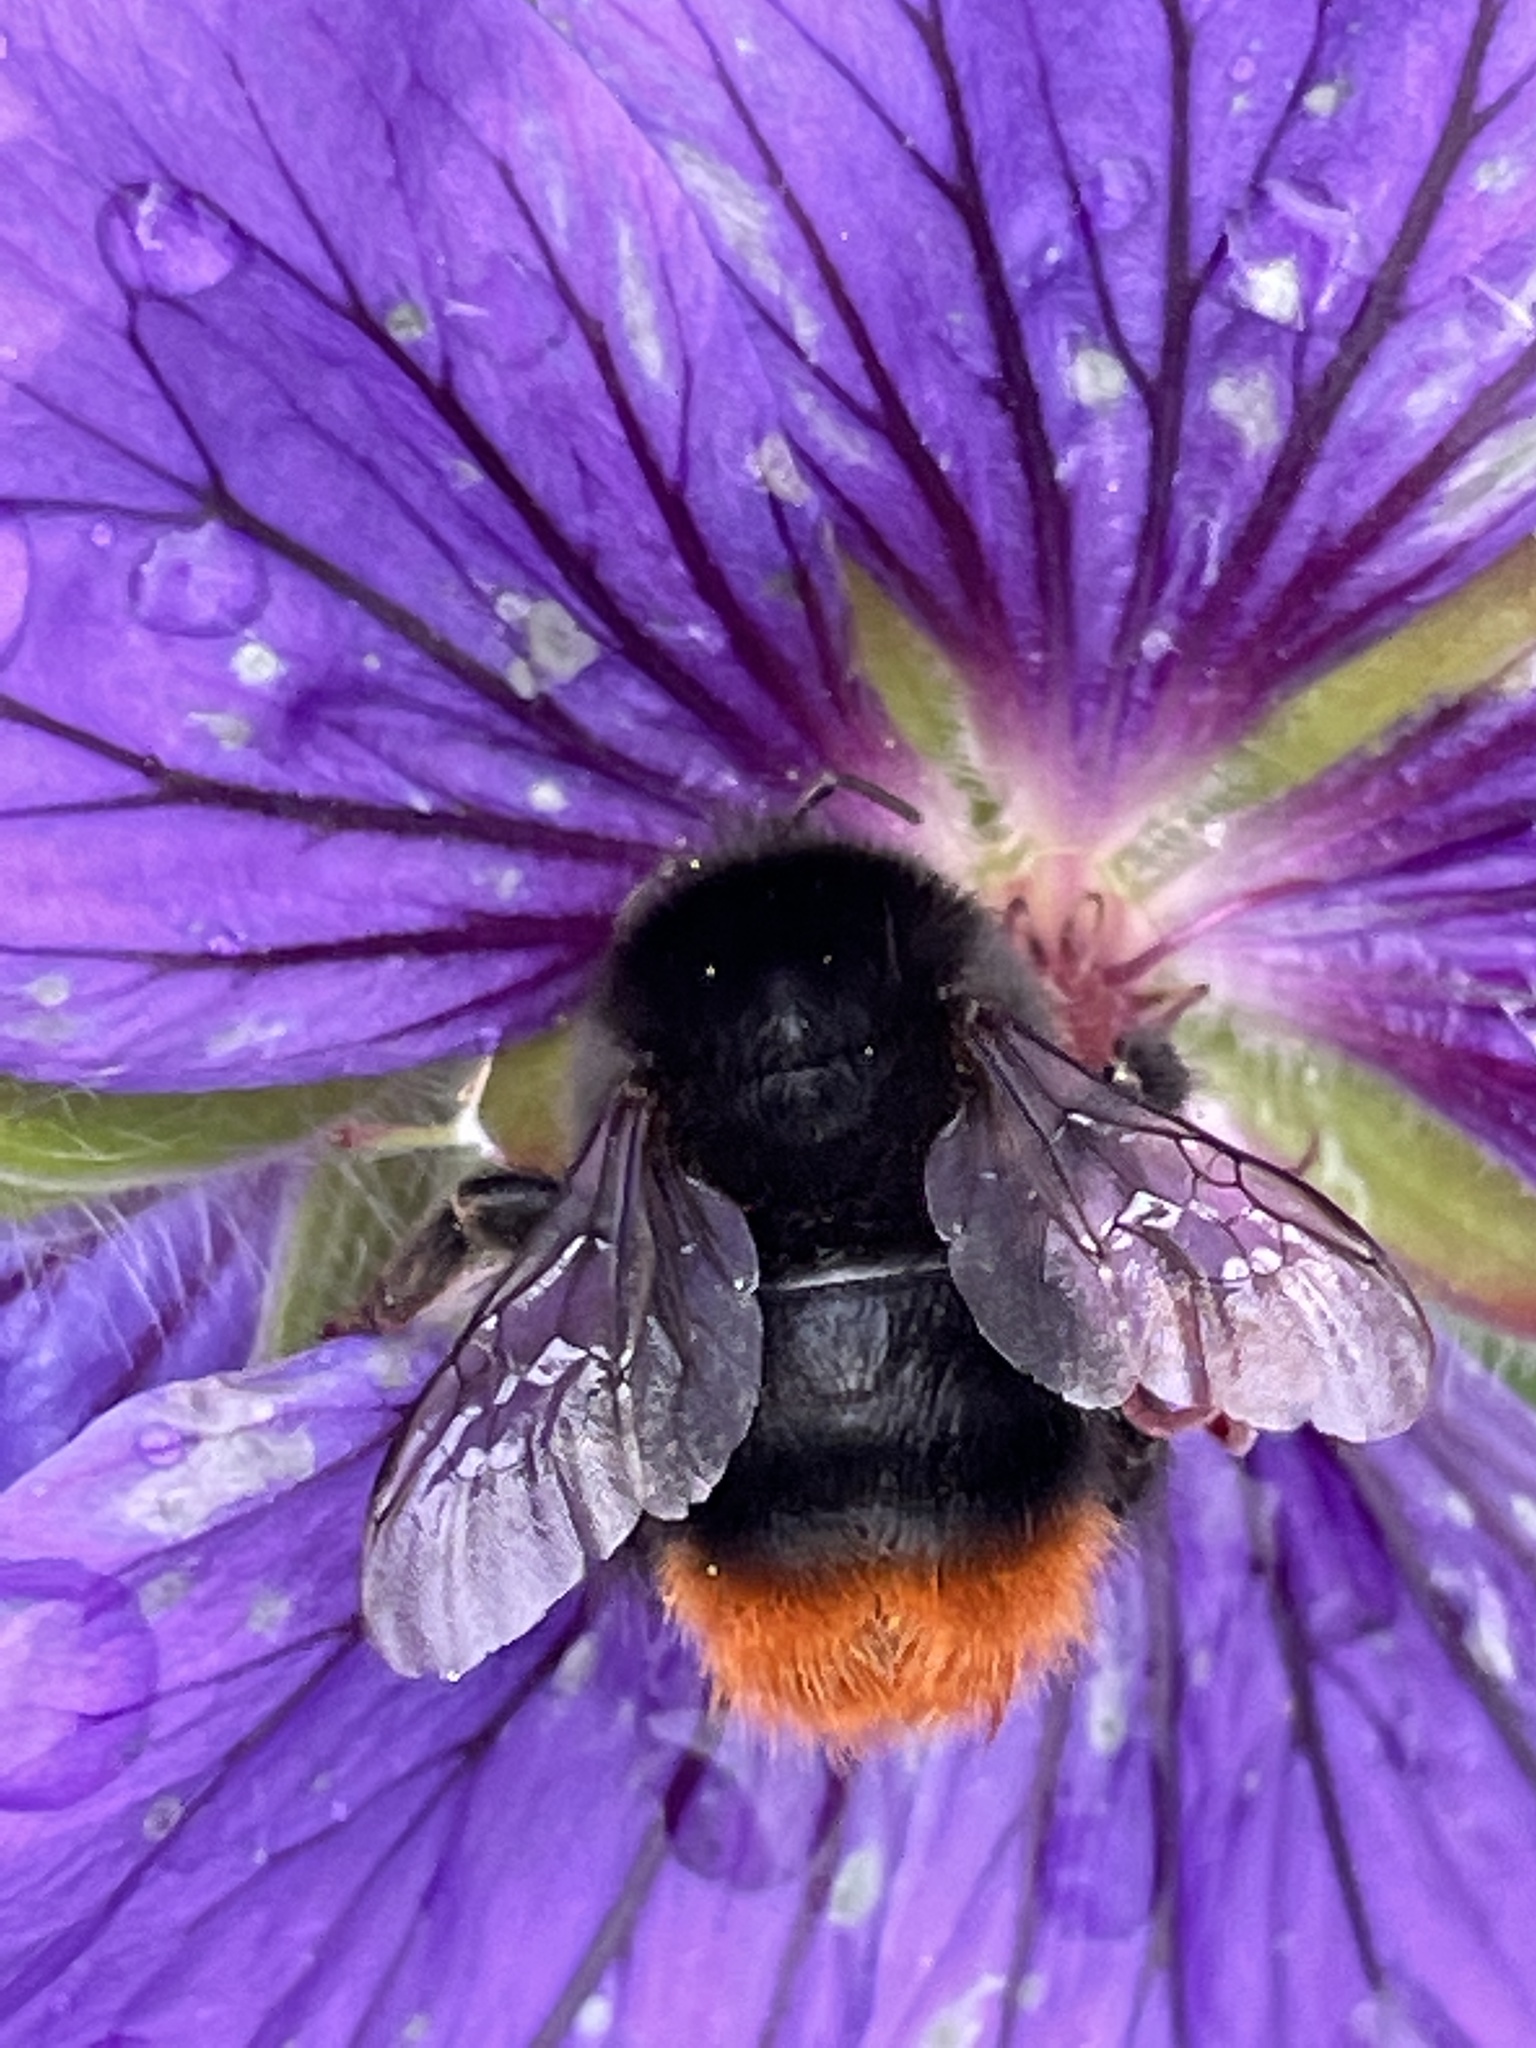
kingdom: Animalia
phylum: Arthropoda
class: Insecta
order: Hymenoptera
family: Apidae
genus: Bombus
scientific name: Bombus lapidarius
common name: Large red-tailed humble-bee
